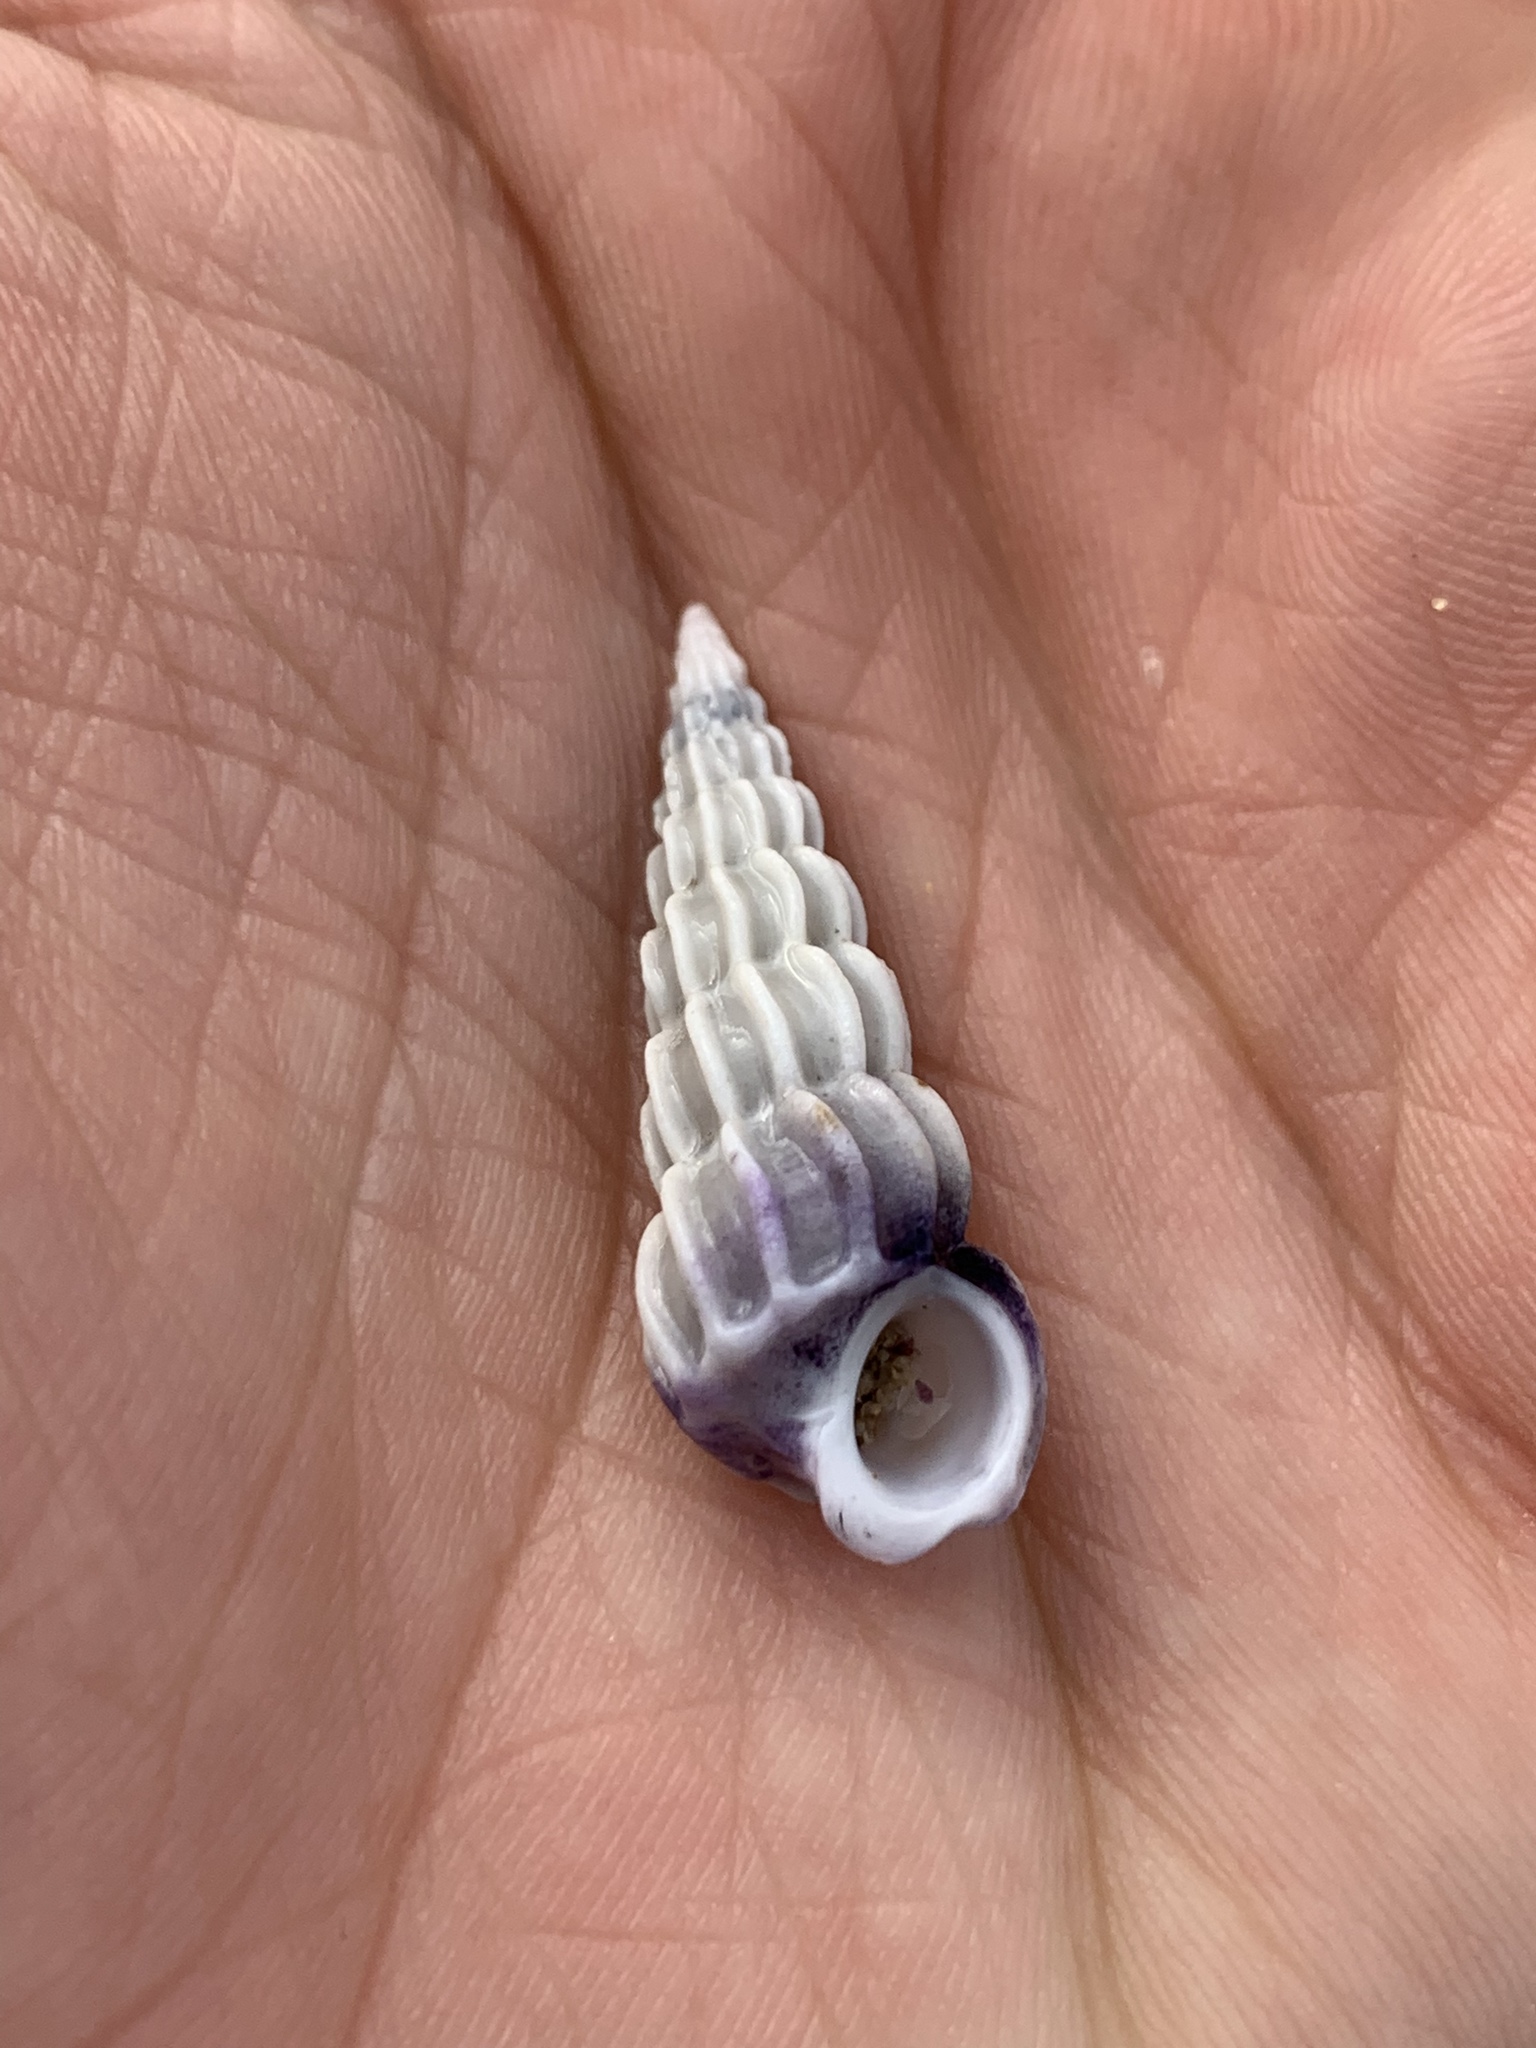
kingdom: Animalia
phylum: Mollusca
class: Gastropoda
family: Epitoniidae
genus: Opalia
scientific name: Opalia australis
